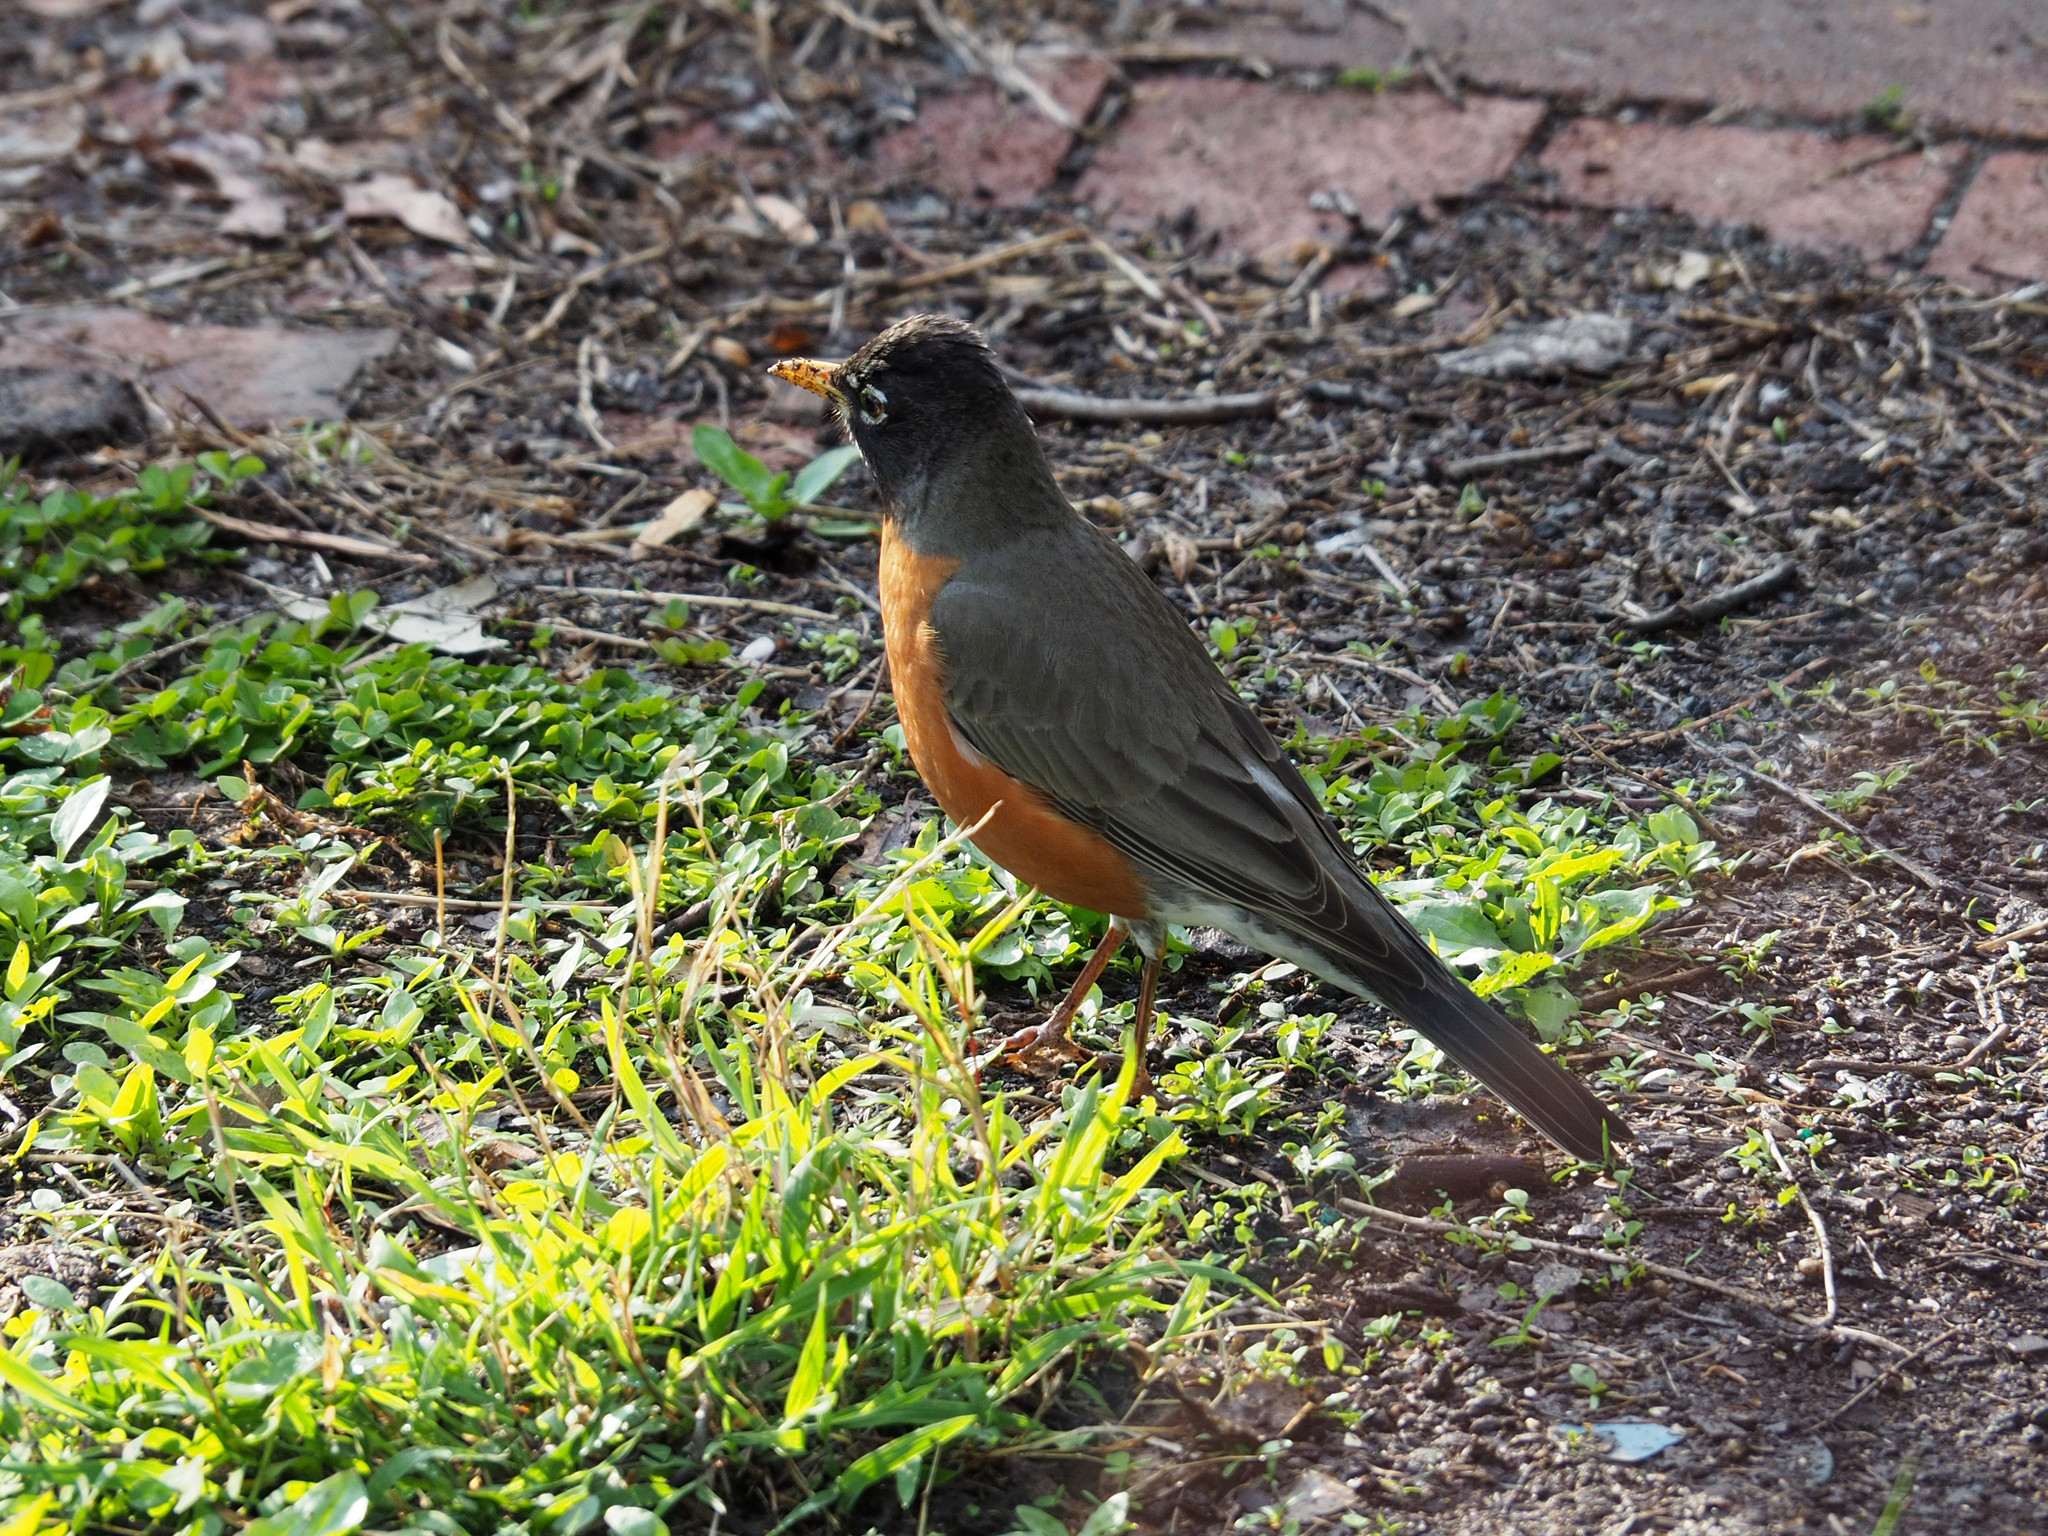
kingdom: Animalia
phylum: Chordata
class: Aves
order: Passeriformes
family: Turdidae
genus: Turdus
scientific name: Turdus migratorius
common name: American robin
